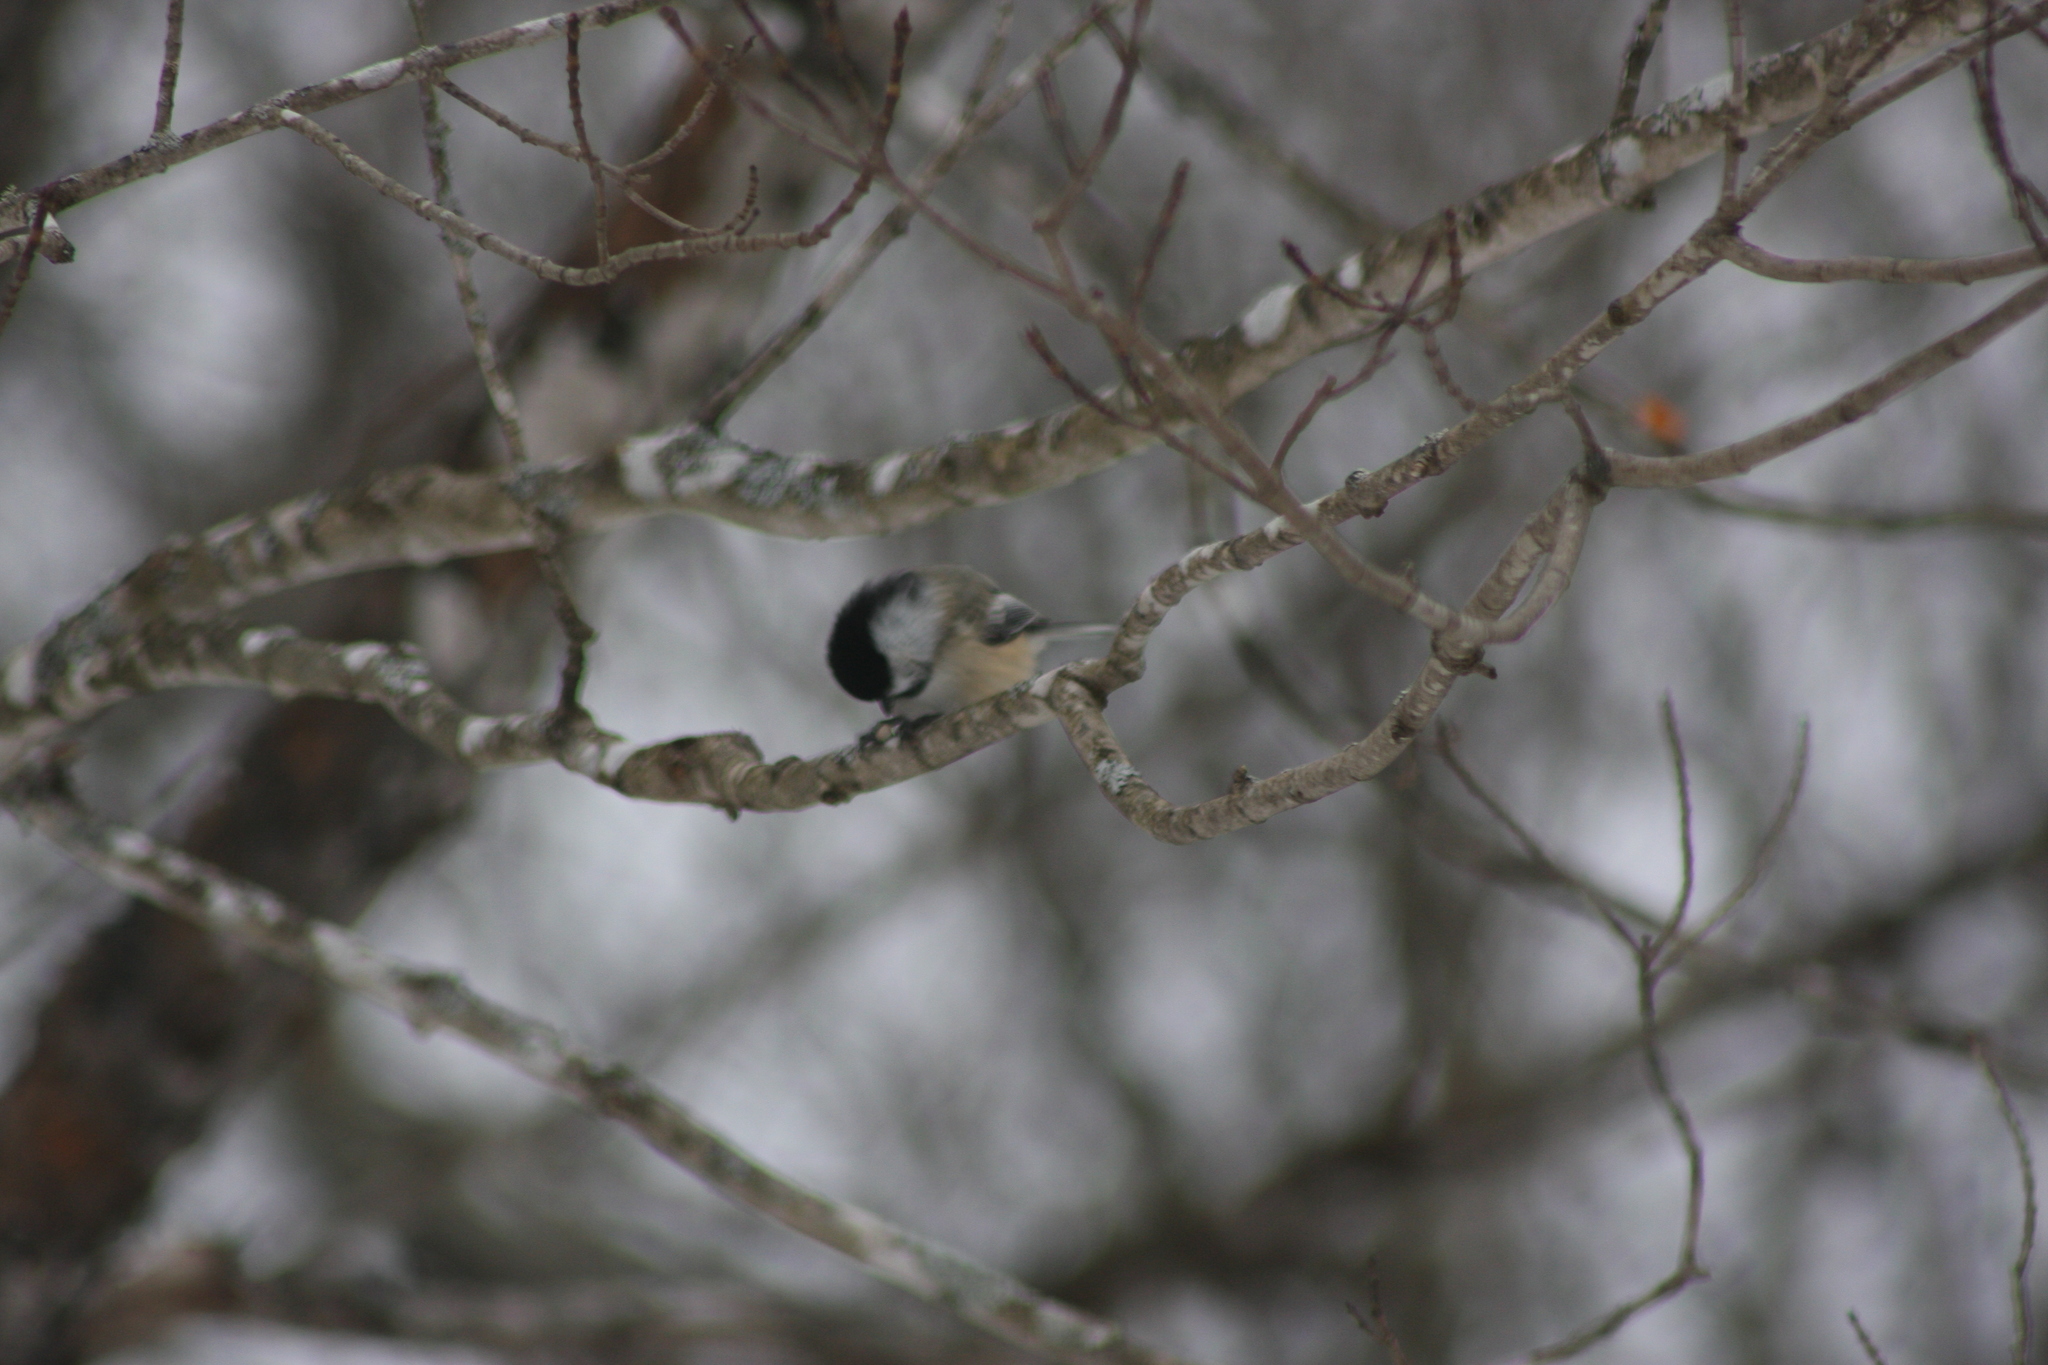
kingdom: Animalia
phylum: Chordata
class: Aves
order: Passeriformes
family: Paridae
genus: Poecile
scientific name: Poecile atricapillus
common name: Black-capped chickadee
